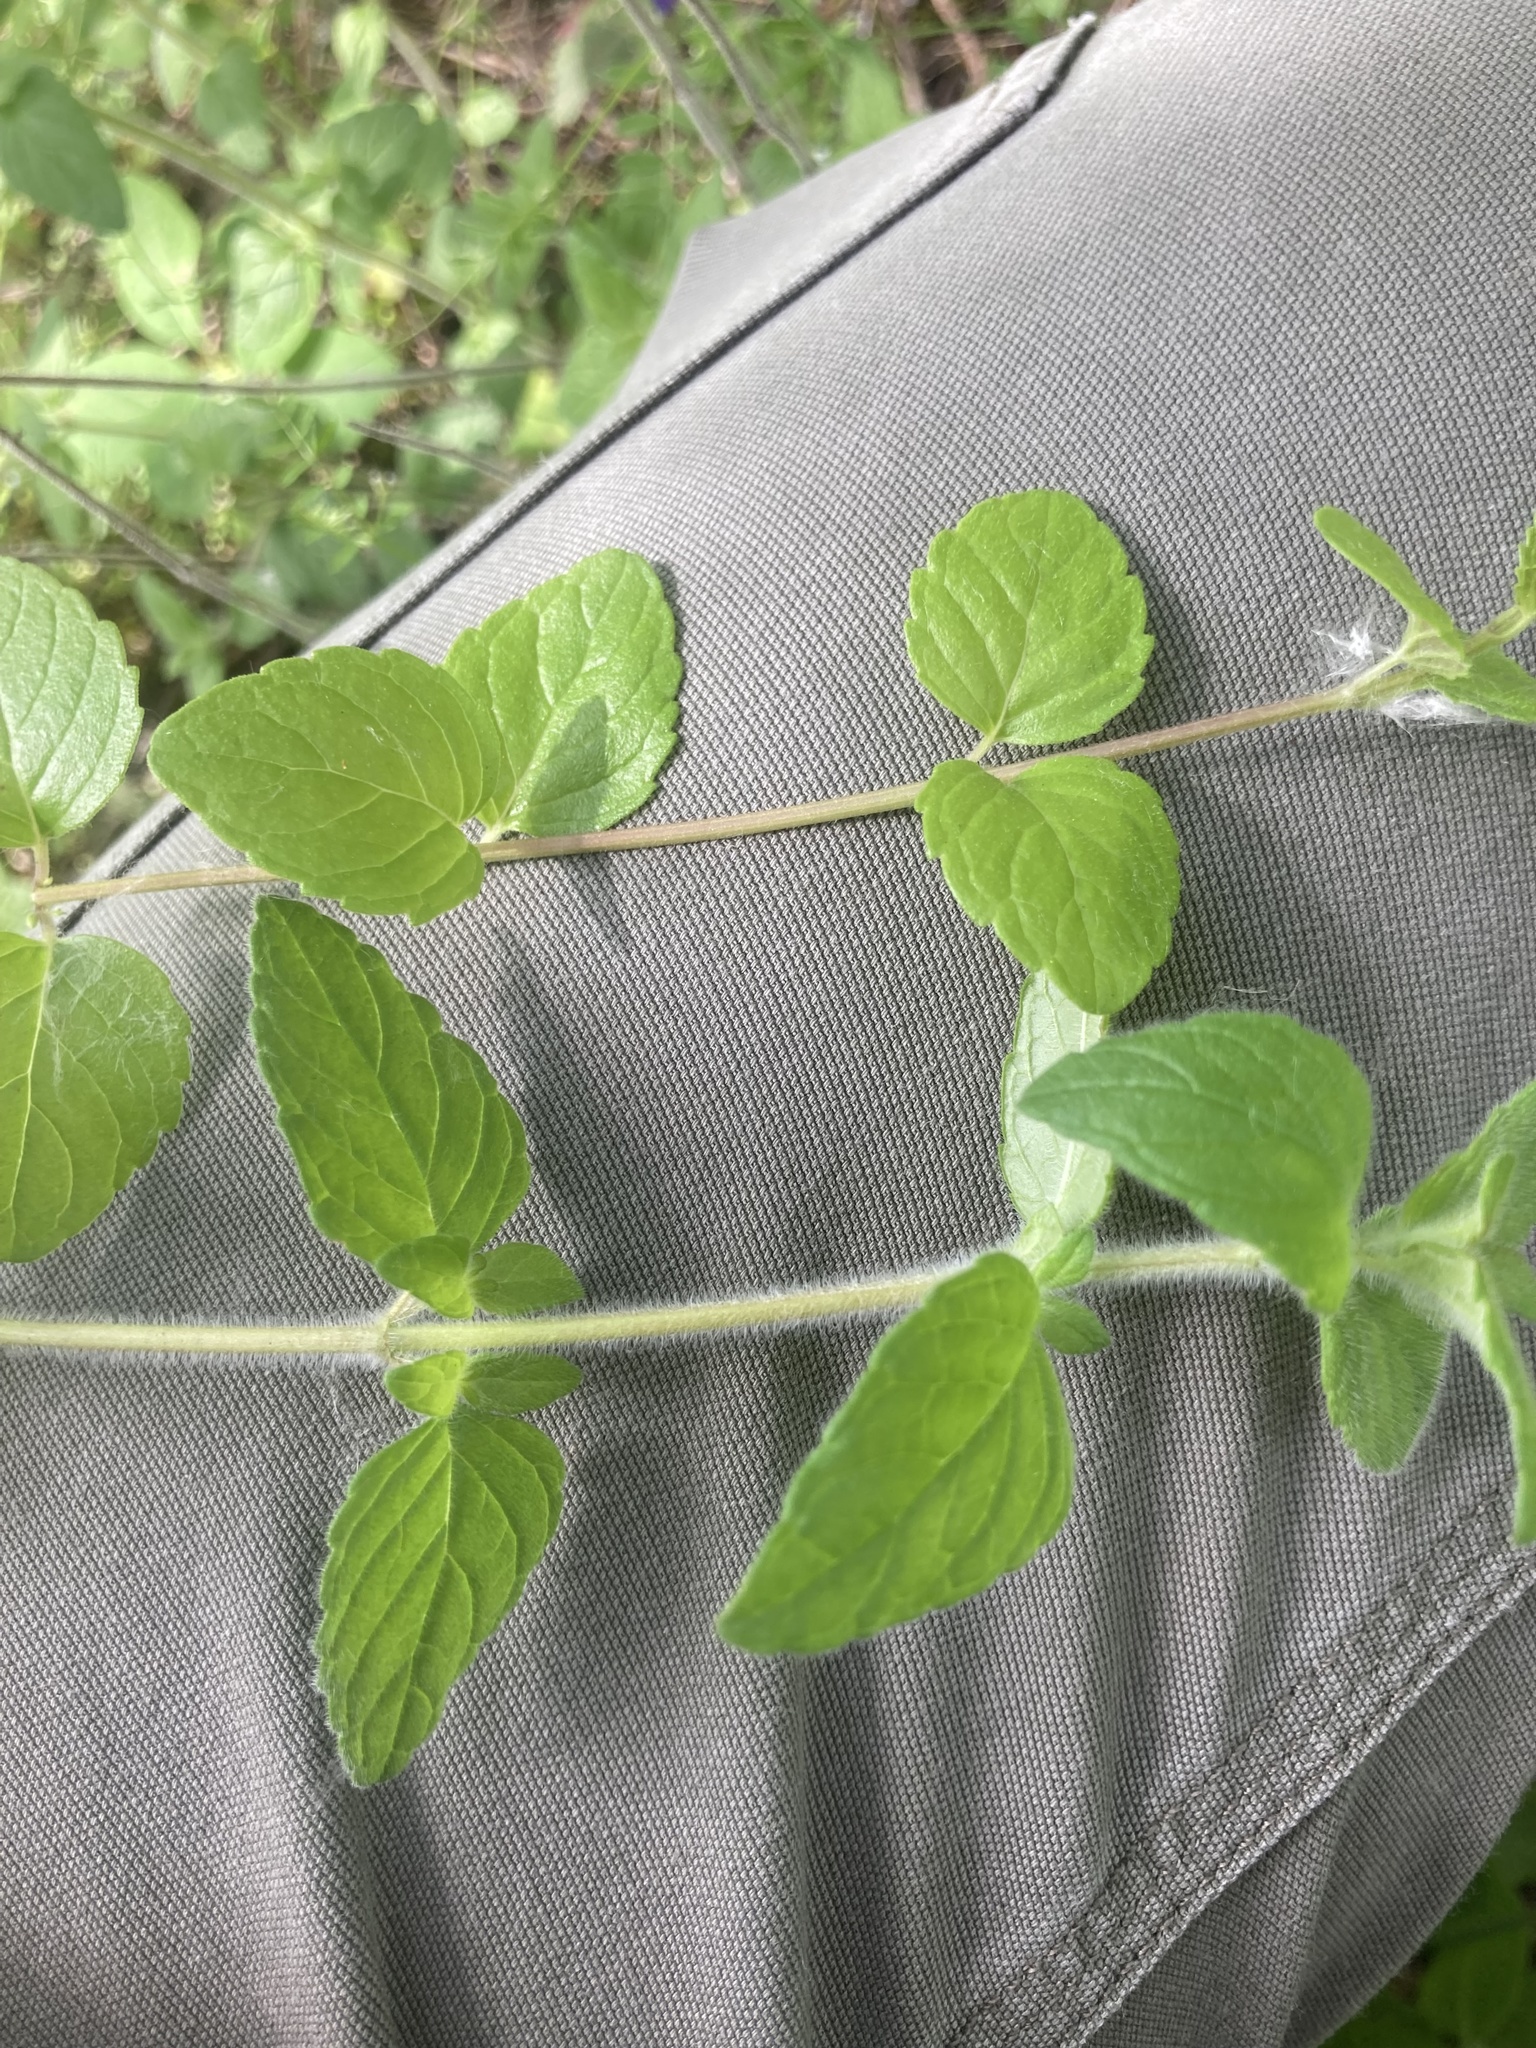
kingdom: Plantae
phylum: Tracheophyta
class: Magnoliopsida
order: Lamiales
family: Lamiaceae
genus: Clinopodium
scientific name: Clinopodium vulgare
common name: Wild basil
